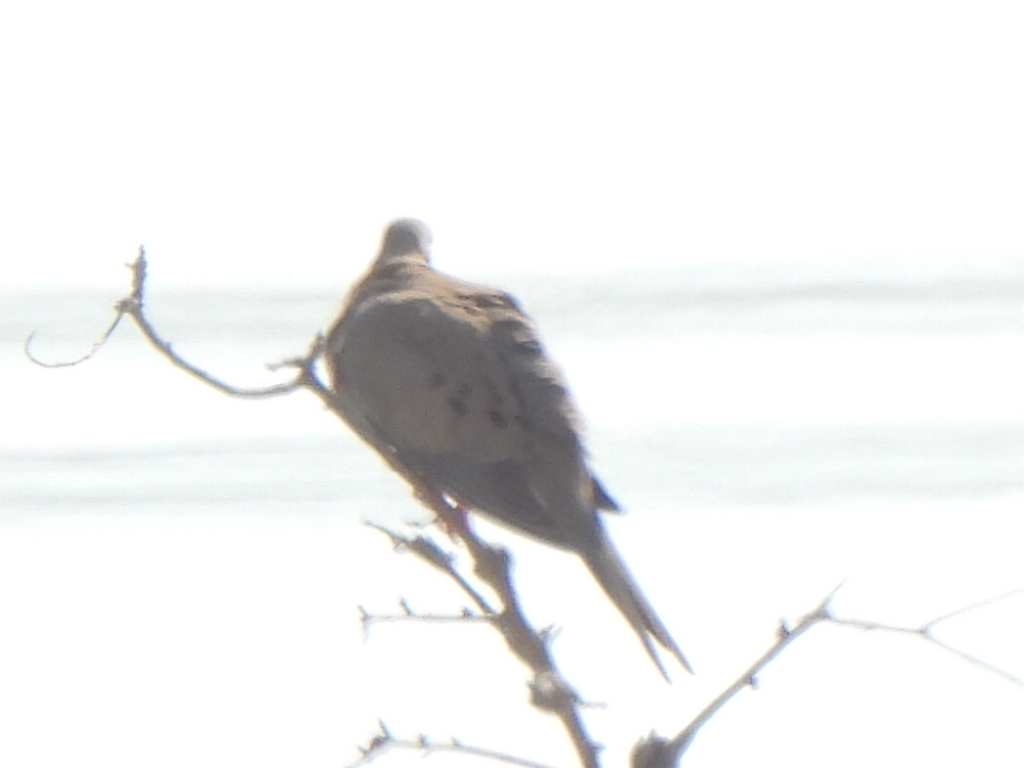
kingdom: Animalia
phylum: Chordata
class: Aves
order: Columbiformes
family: Columbidae
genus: Zenaida
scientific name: Zenaida macroura
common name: Mourning dove
